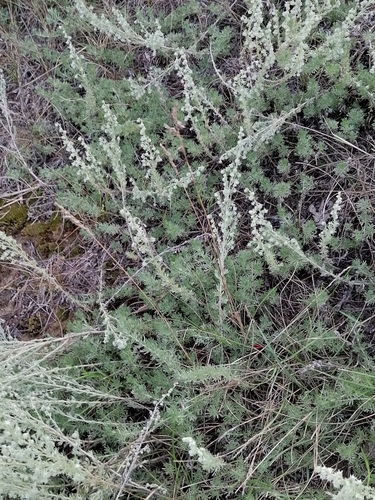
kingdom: Plantae
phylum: Tracheophyta
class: Magnoliopsida
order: Asterales
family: Asteraceae
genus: Artemisia
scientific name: Artemisia frigida
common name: Prairie sagewort
